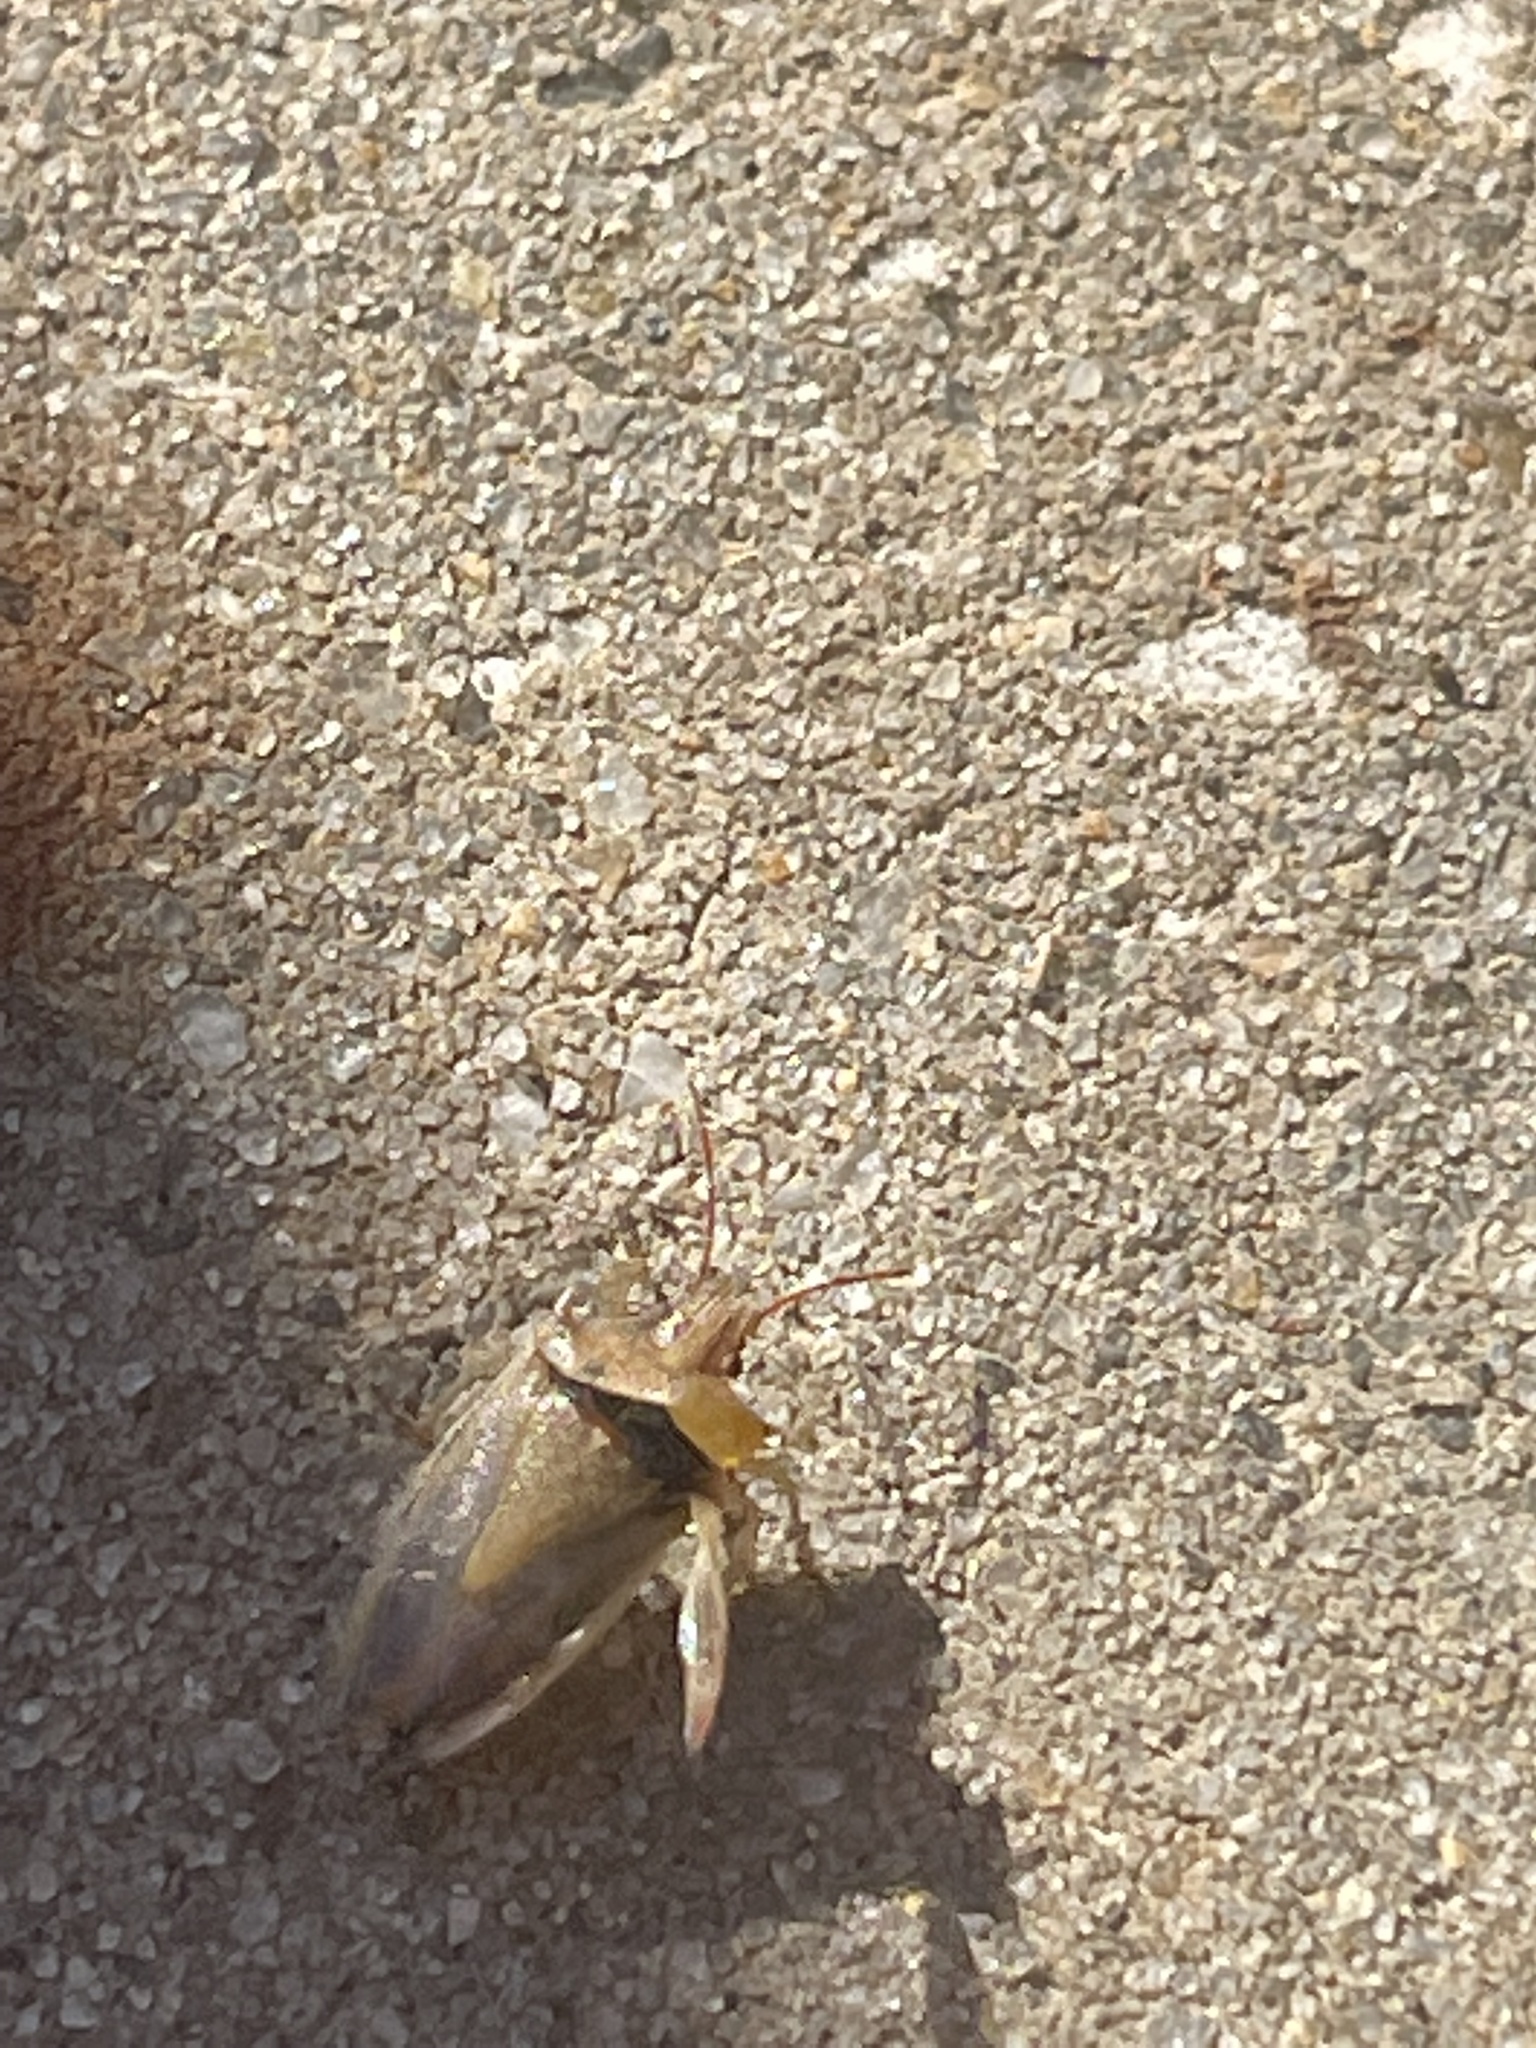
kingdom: Animalia
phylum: Arthropoda
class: Insecta
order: Hemiptera
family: Pentatomidae
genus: Oebalus
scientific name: Oebalus pugnax
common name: Rice stink bug
